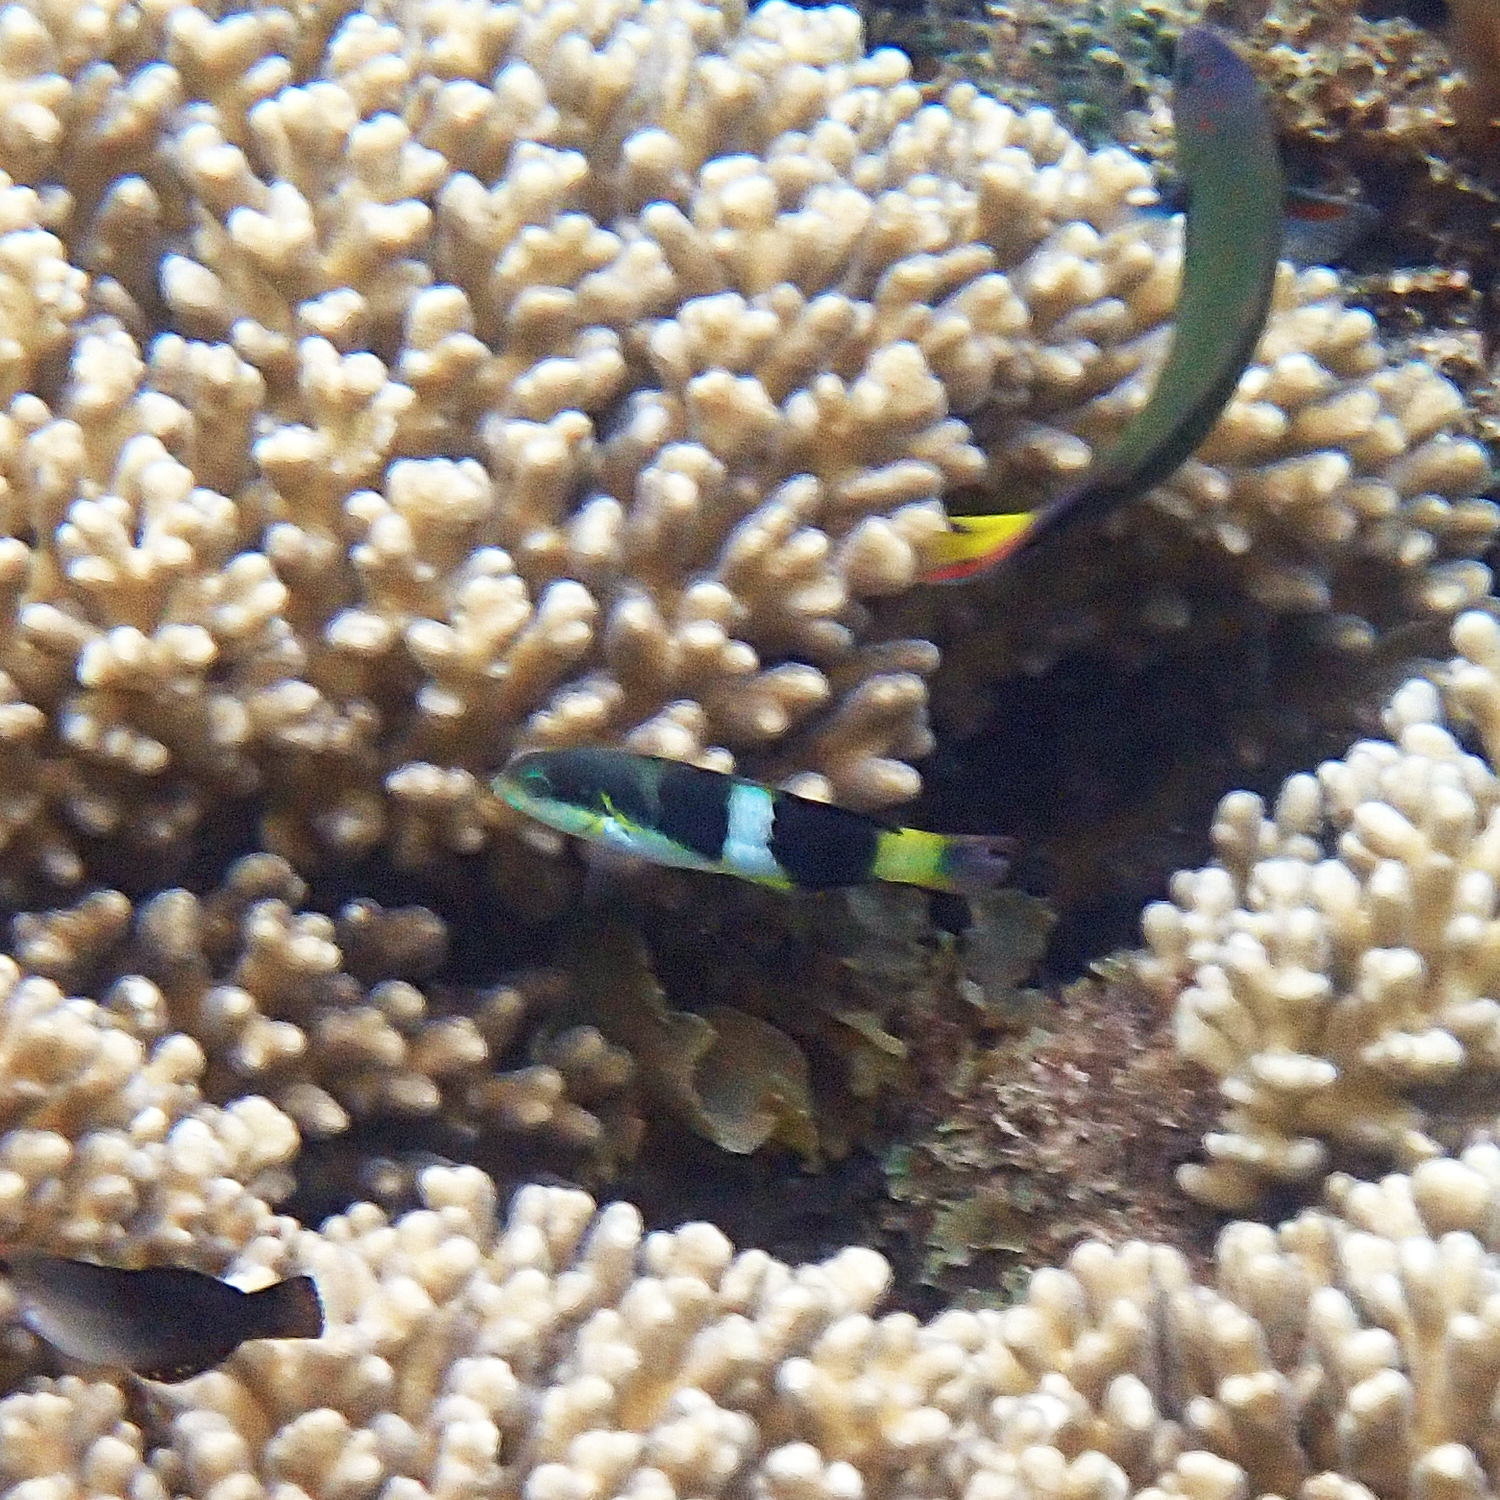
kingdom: Animalia
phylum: Chordata
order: Perciformes
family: Labridae
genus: Thalassoma
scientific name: Thalassoma nigrofasciatum
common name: Black-barred wrasse
